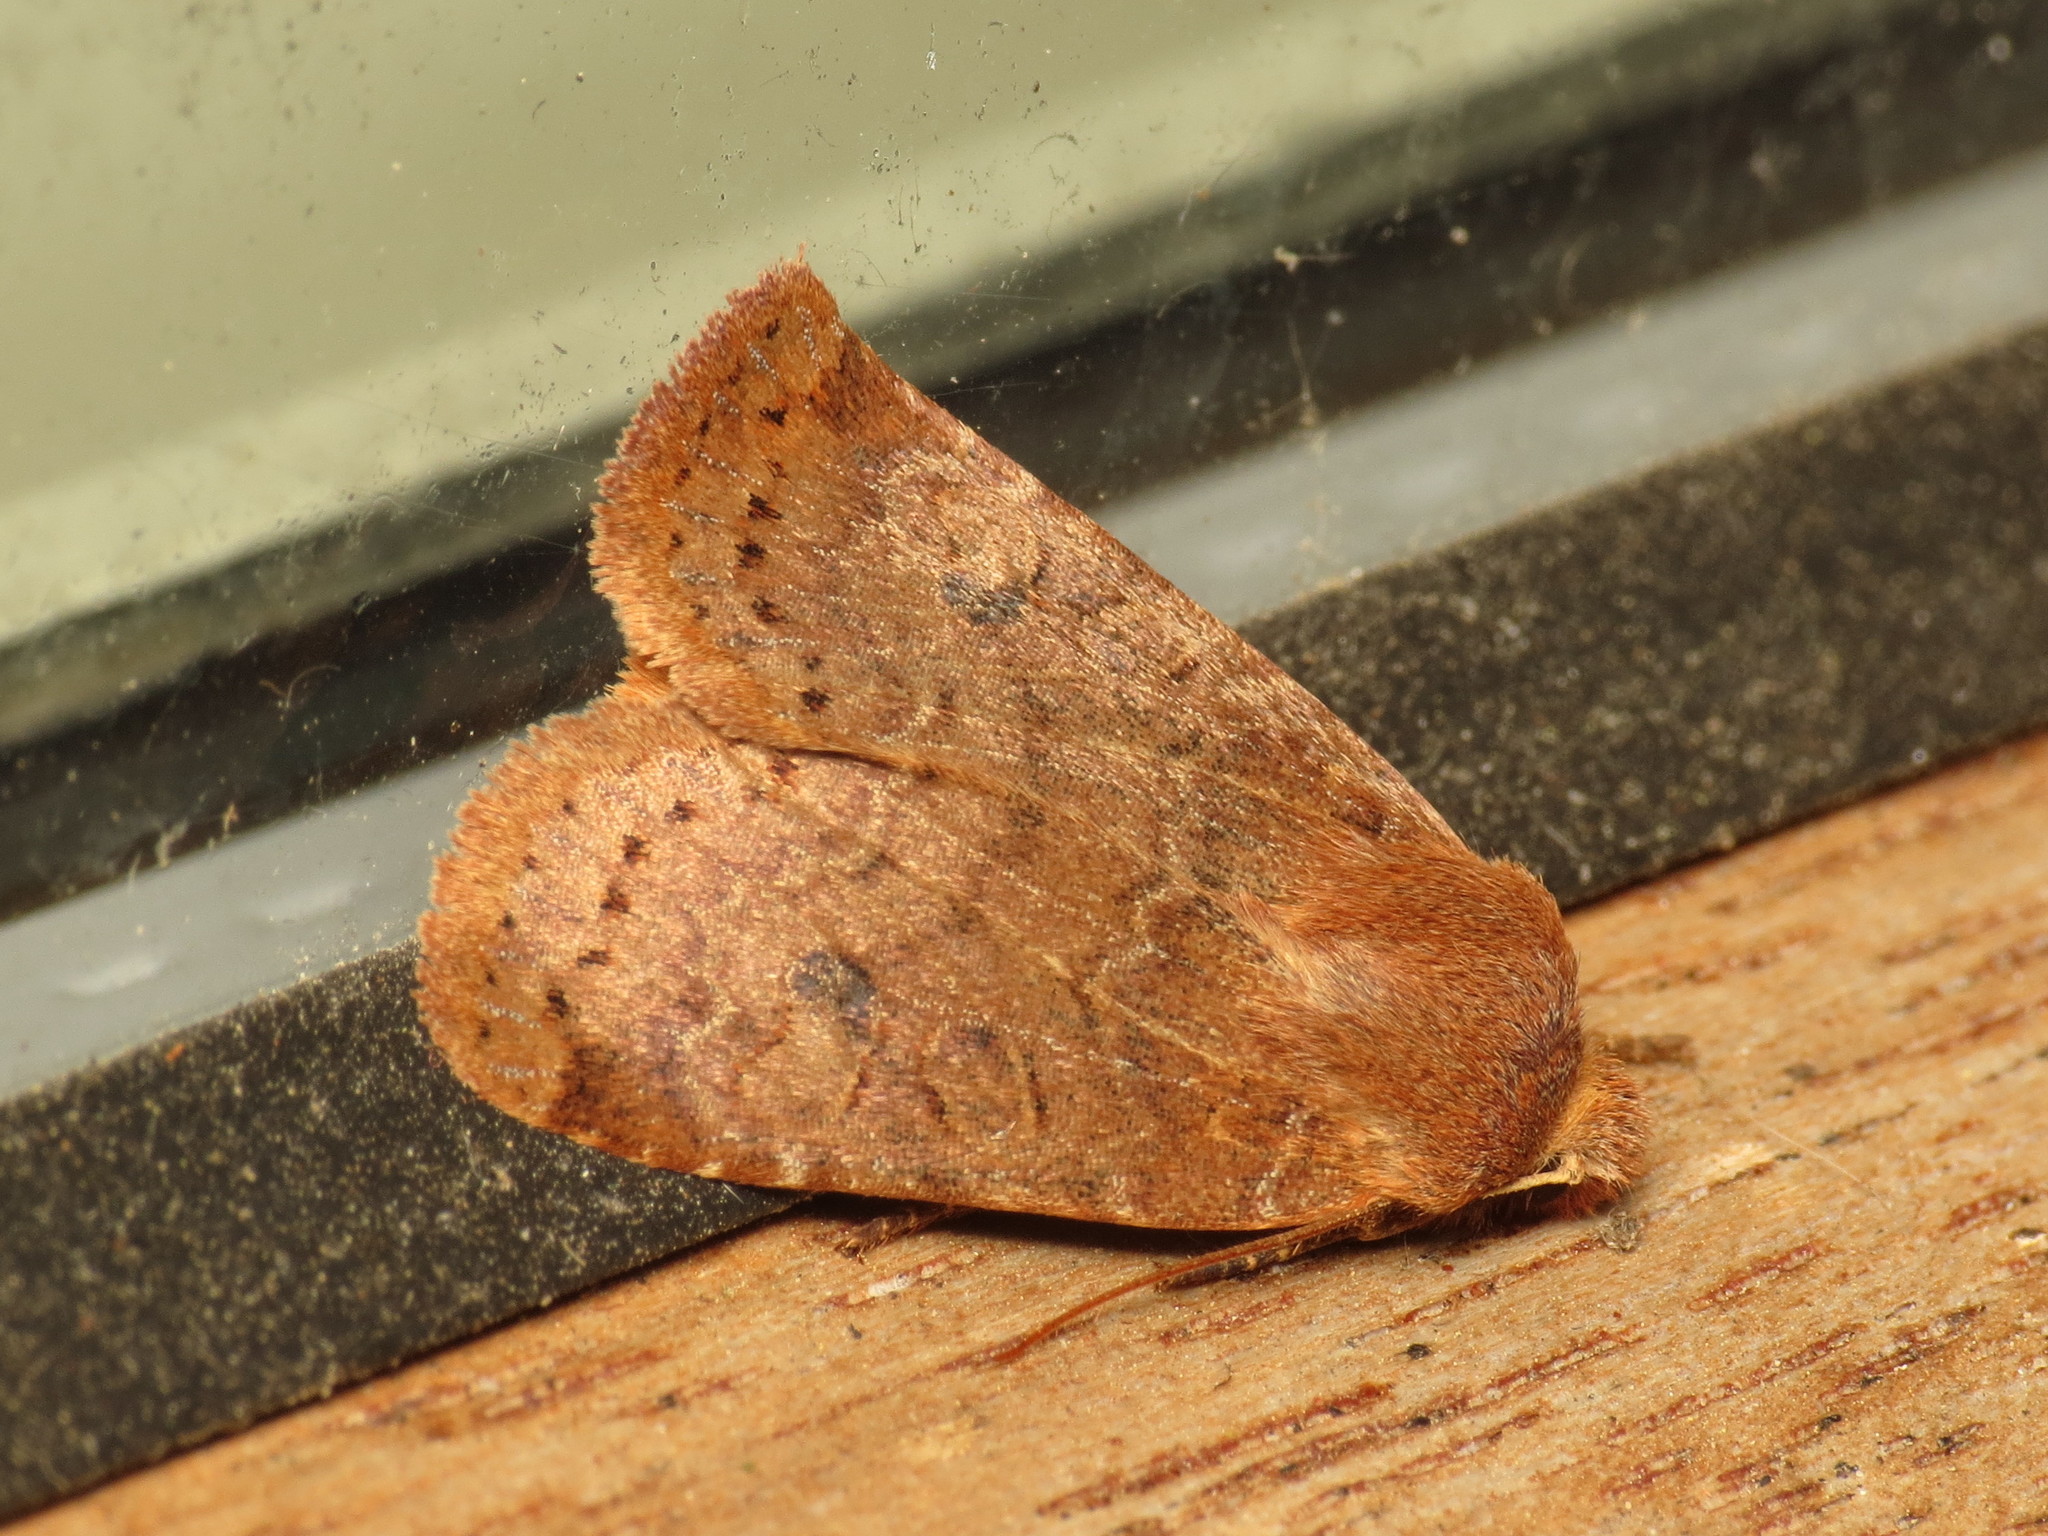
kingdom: Animalia
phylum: Arthropoda
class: Insecta
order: Lepidoptera
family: Noctuidae
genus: Conistra
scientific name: Conistra vaccinii
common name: Chestnut
